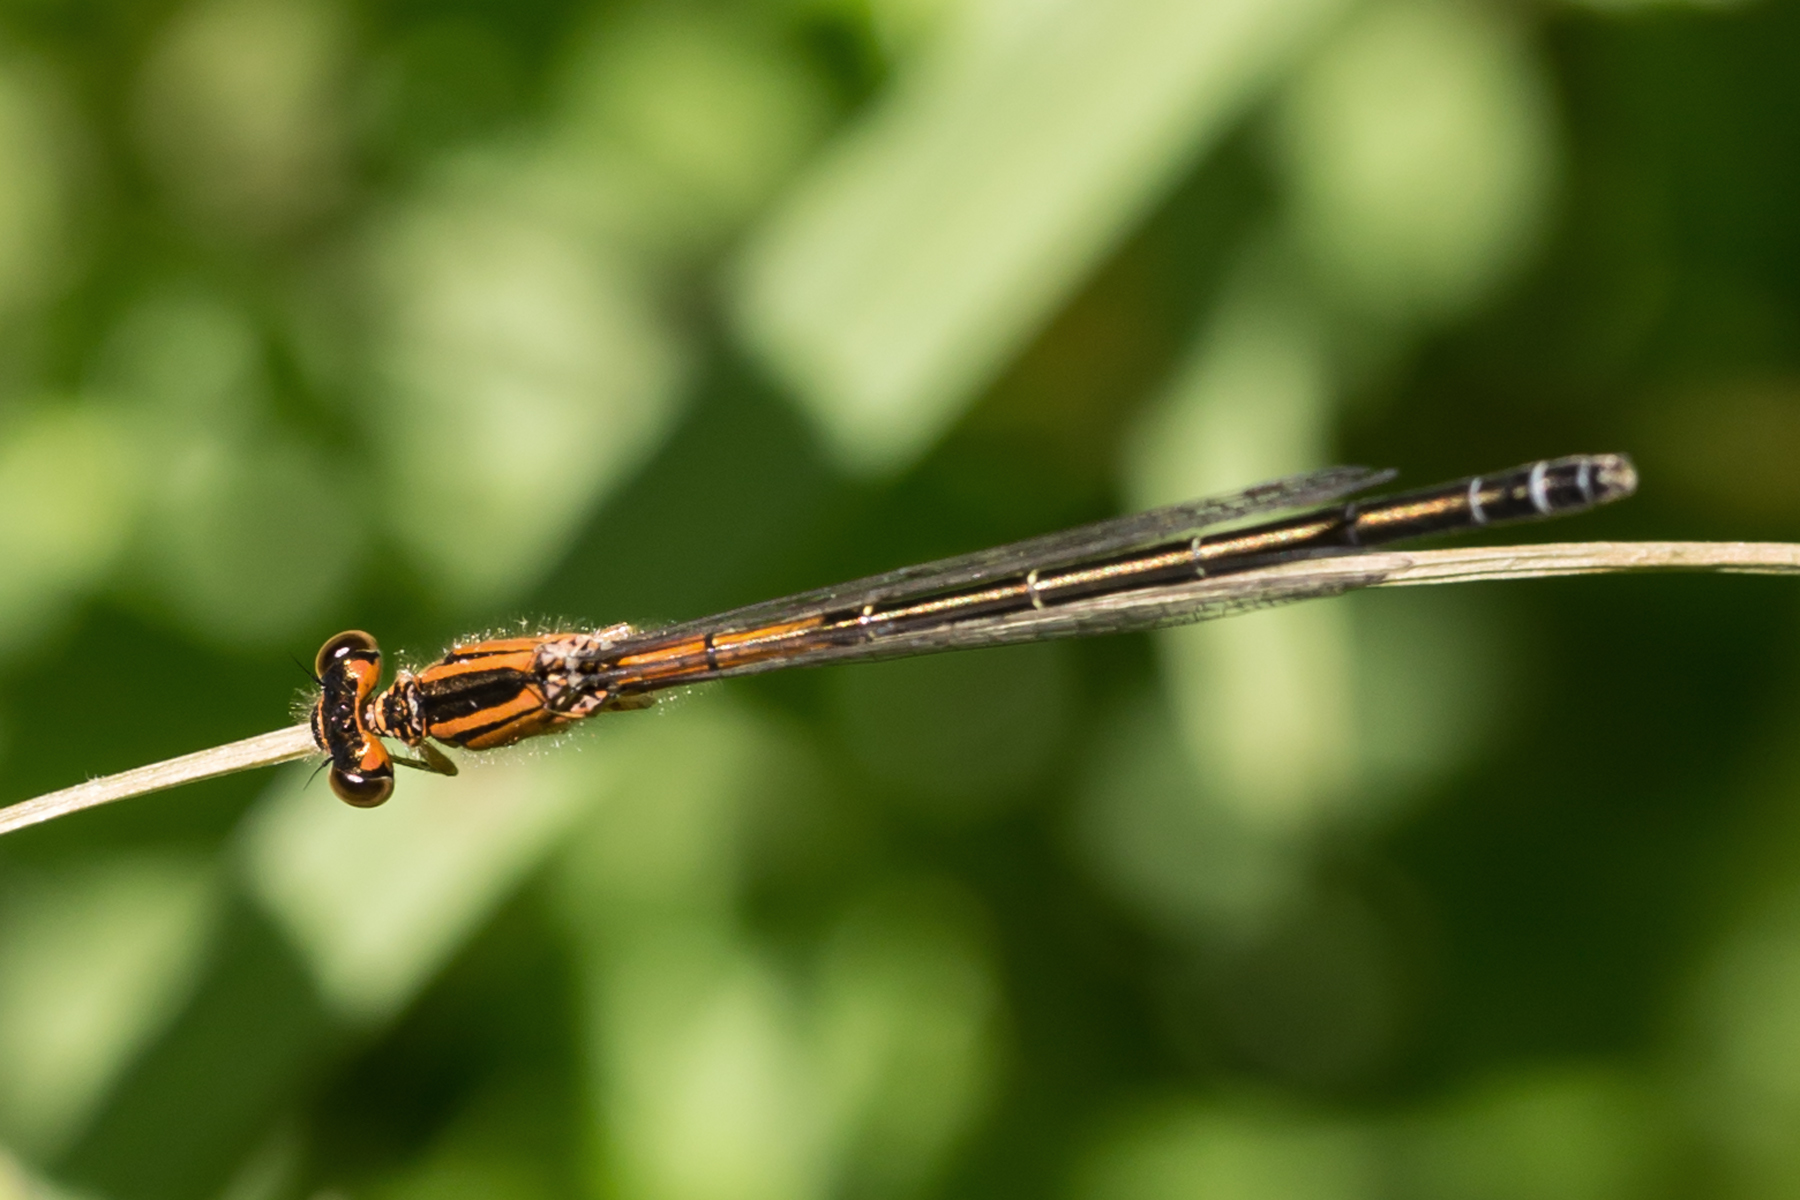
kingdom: Animalia
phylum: Arthropoda
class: Insecta
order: Odonata
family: Coenagrionidae
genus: Ischnura
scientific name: Ischnura verticalis
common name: Eastern forktail
